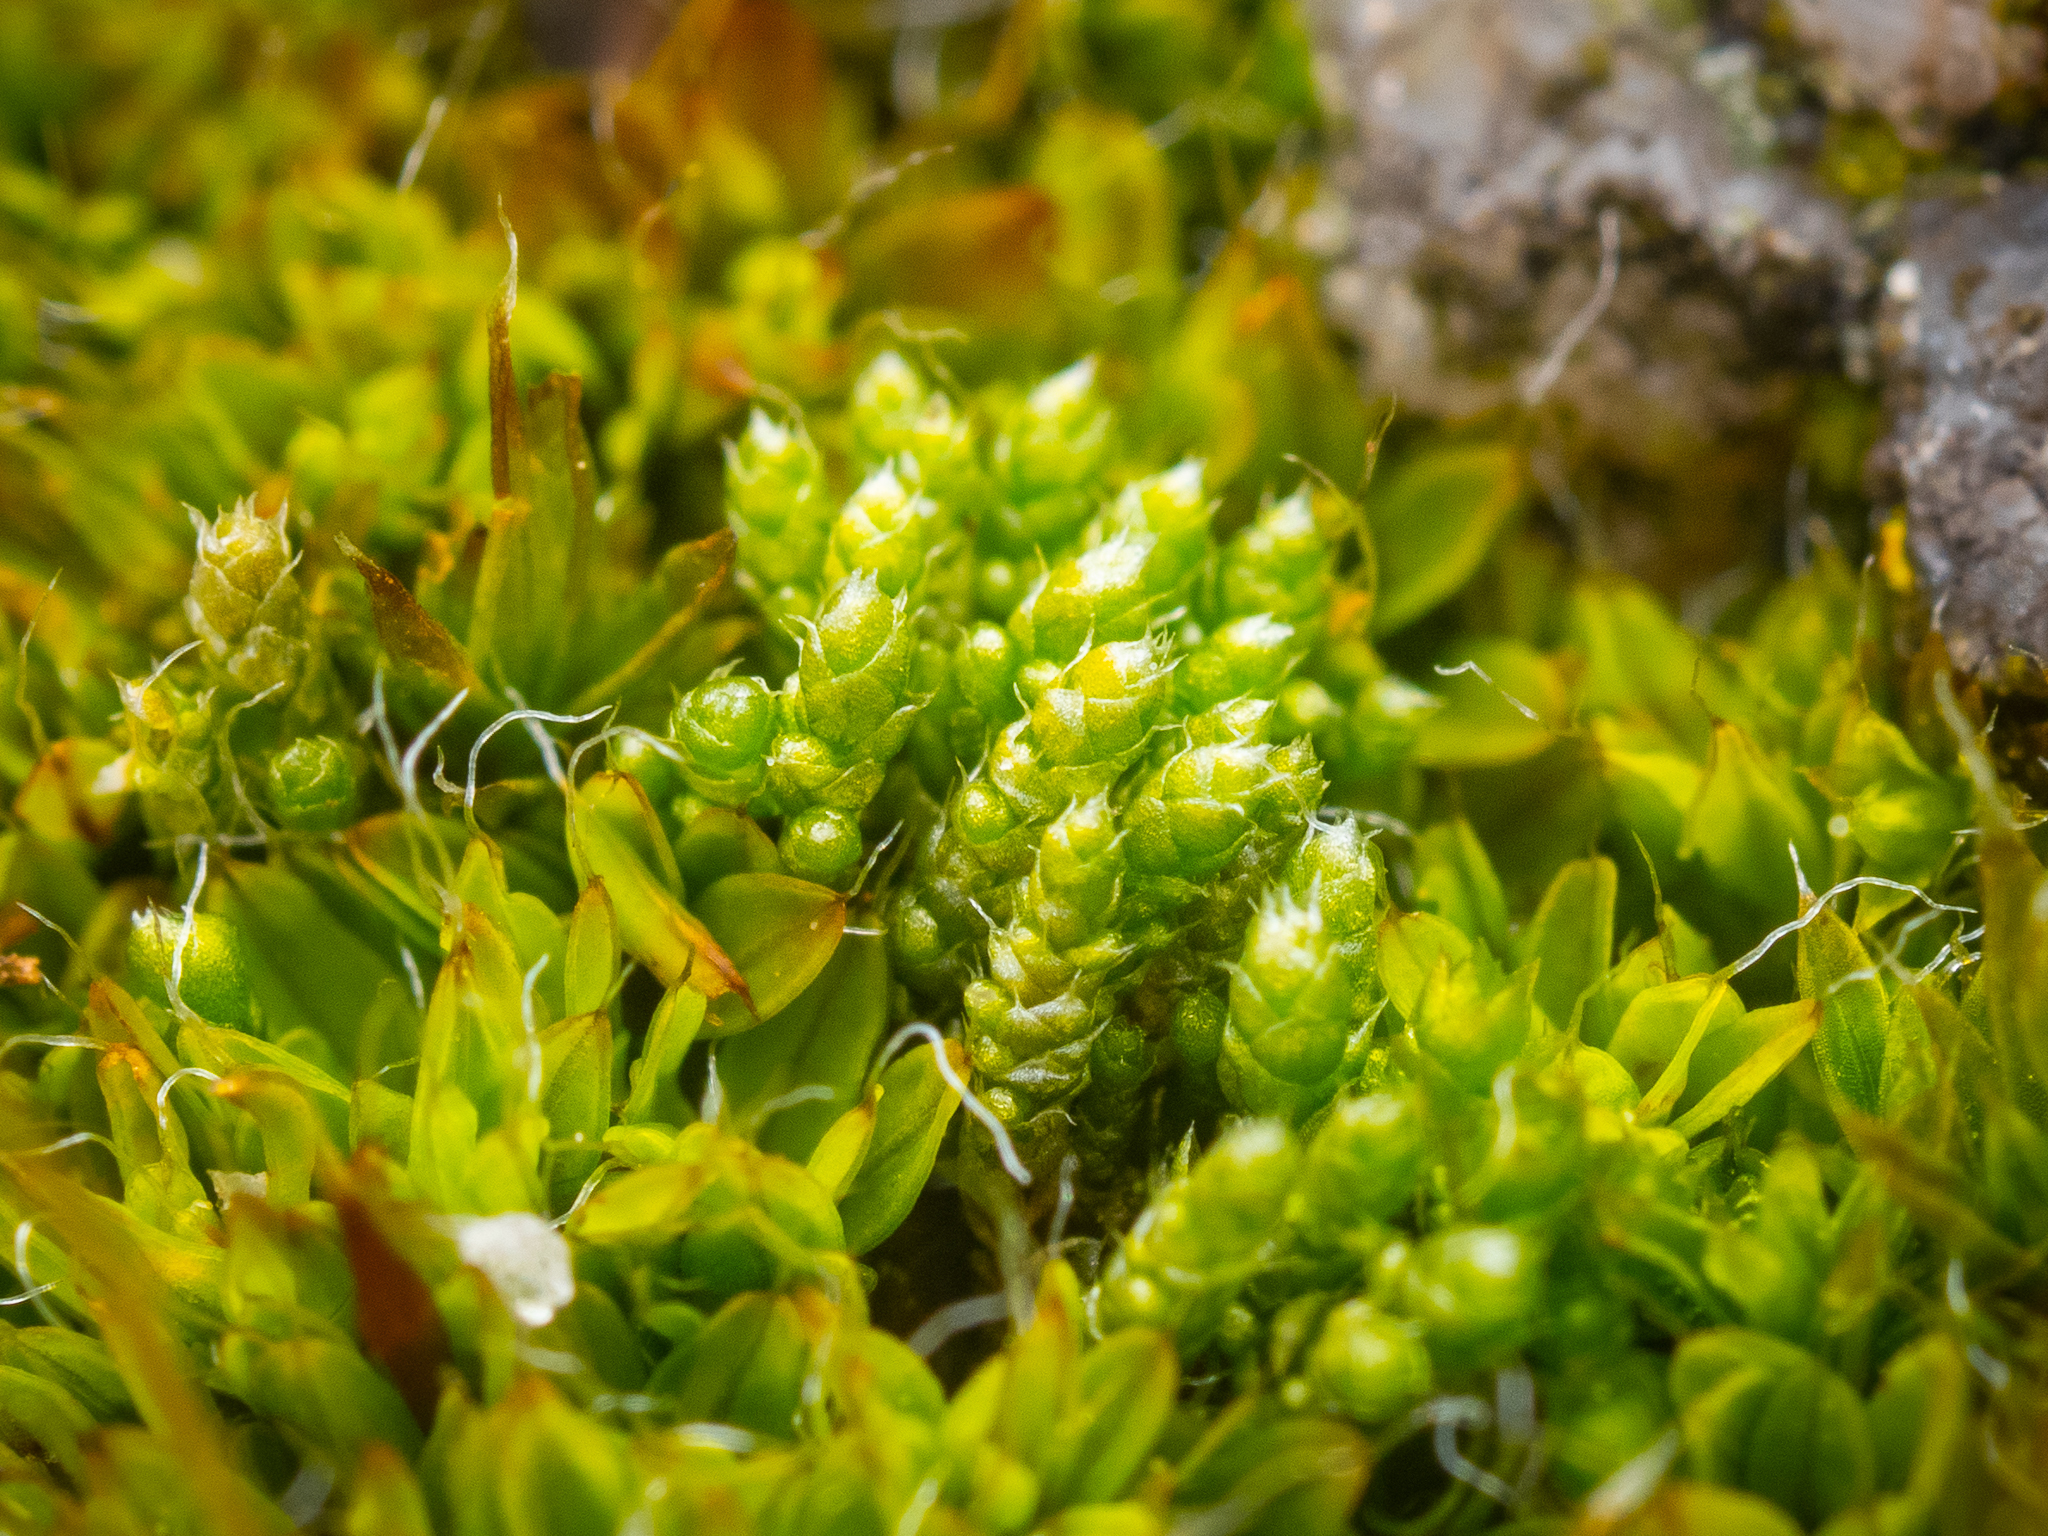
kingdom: Plantae
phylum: Bryophyta
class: Bryopsida
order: Bryales
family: Bryaceae
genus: Bryum
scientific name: Bryum argenteum
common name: Silver-moss
